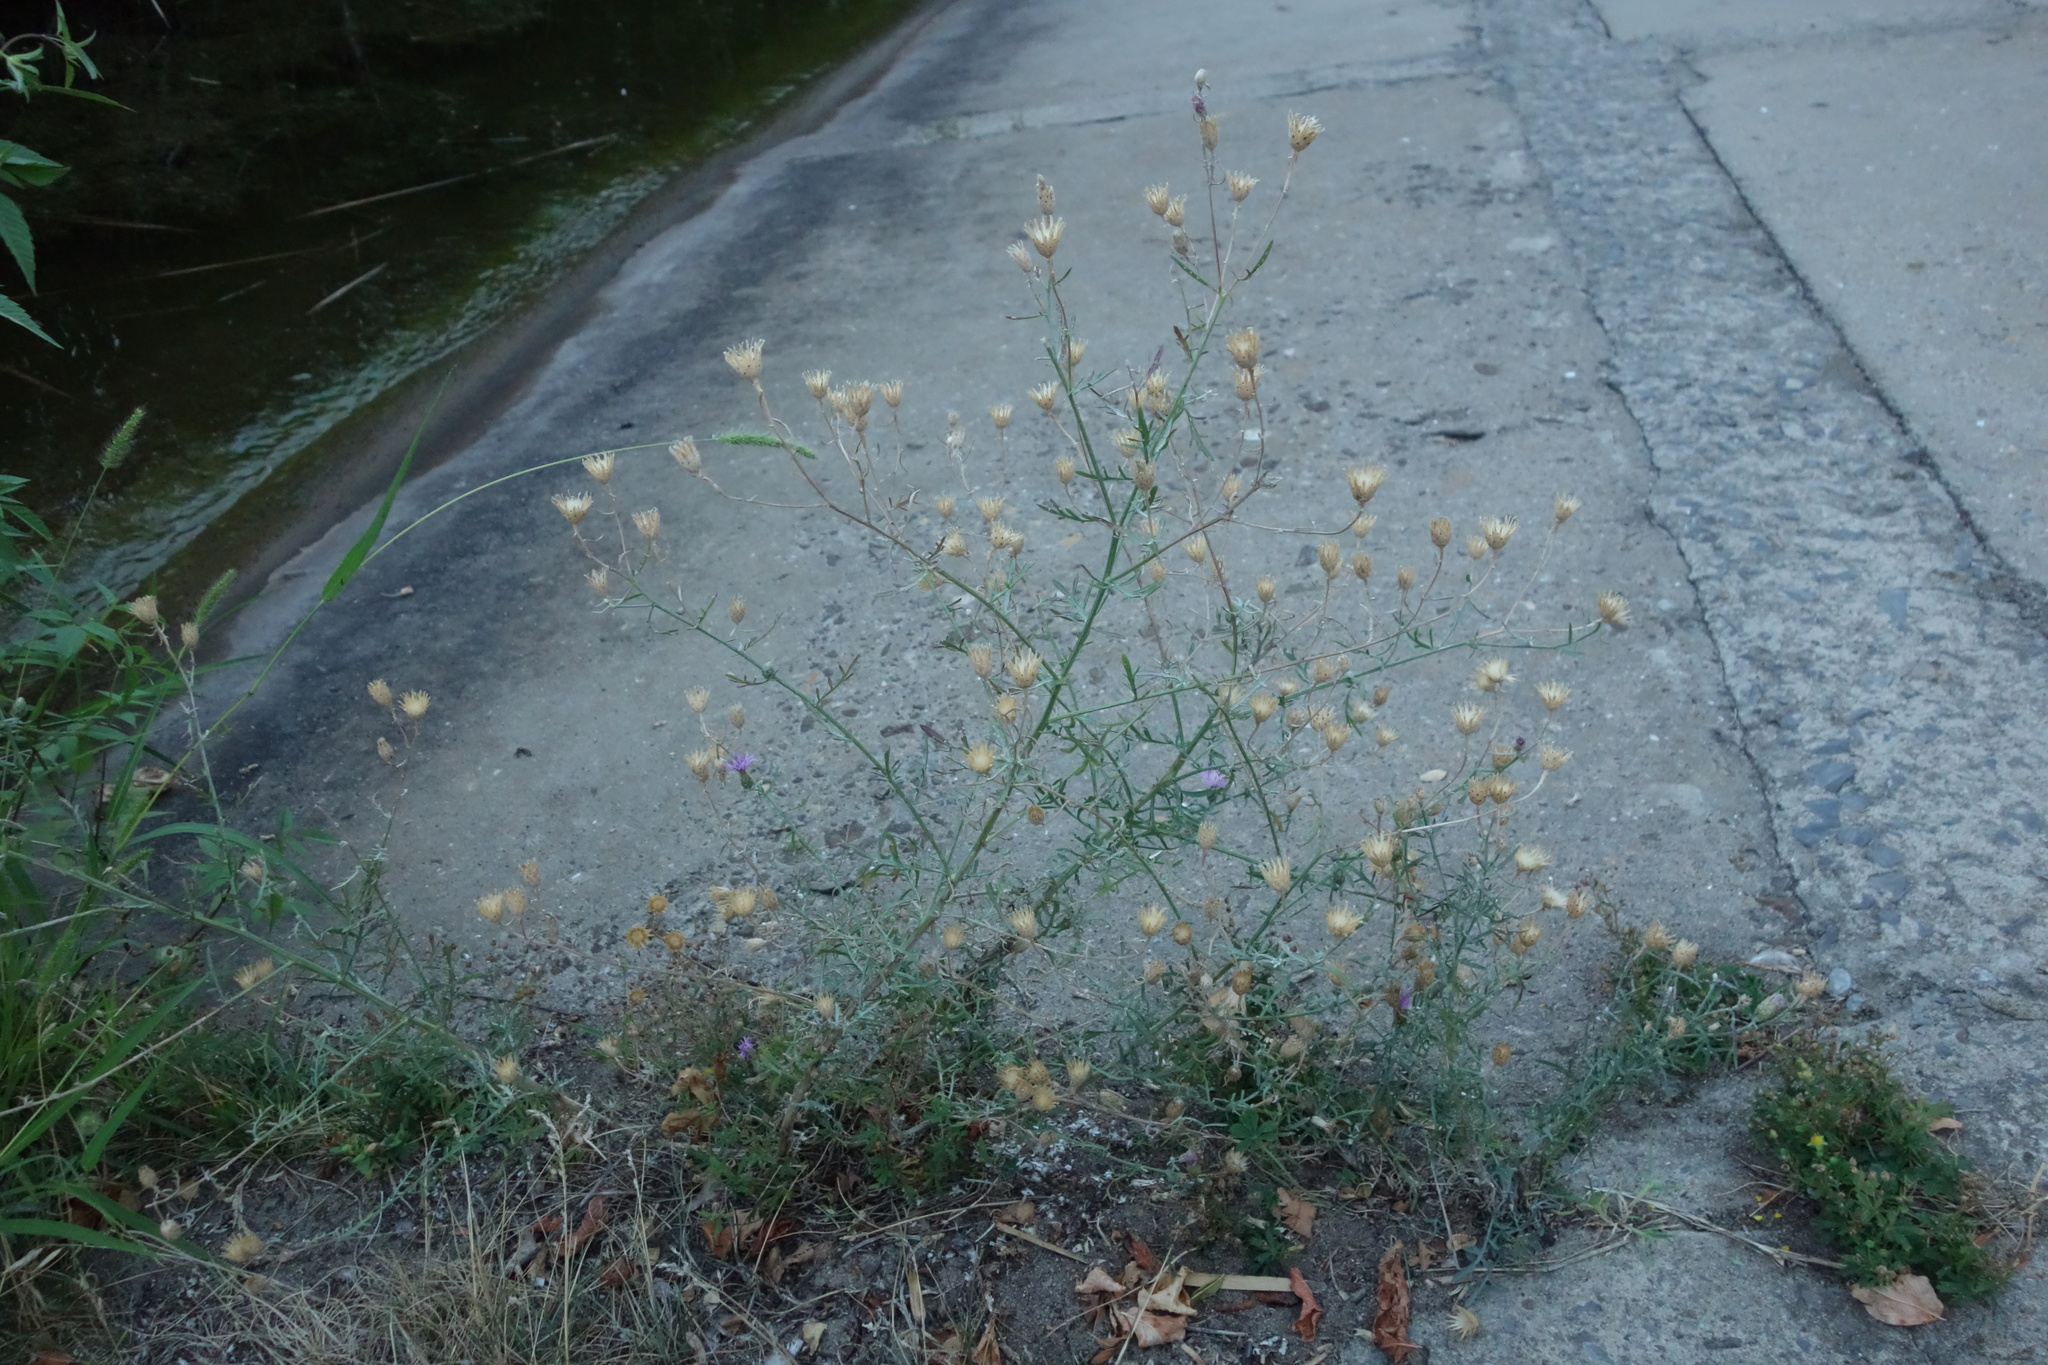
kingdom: Plantae
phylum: Tracheophyta
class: Magnoliopsida
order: Asterales
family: Asteraceae
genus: Centaurea
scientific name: Centaurea arenaria
